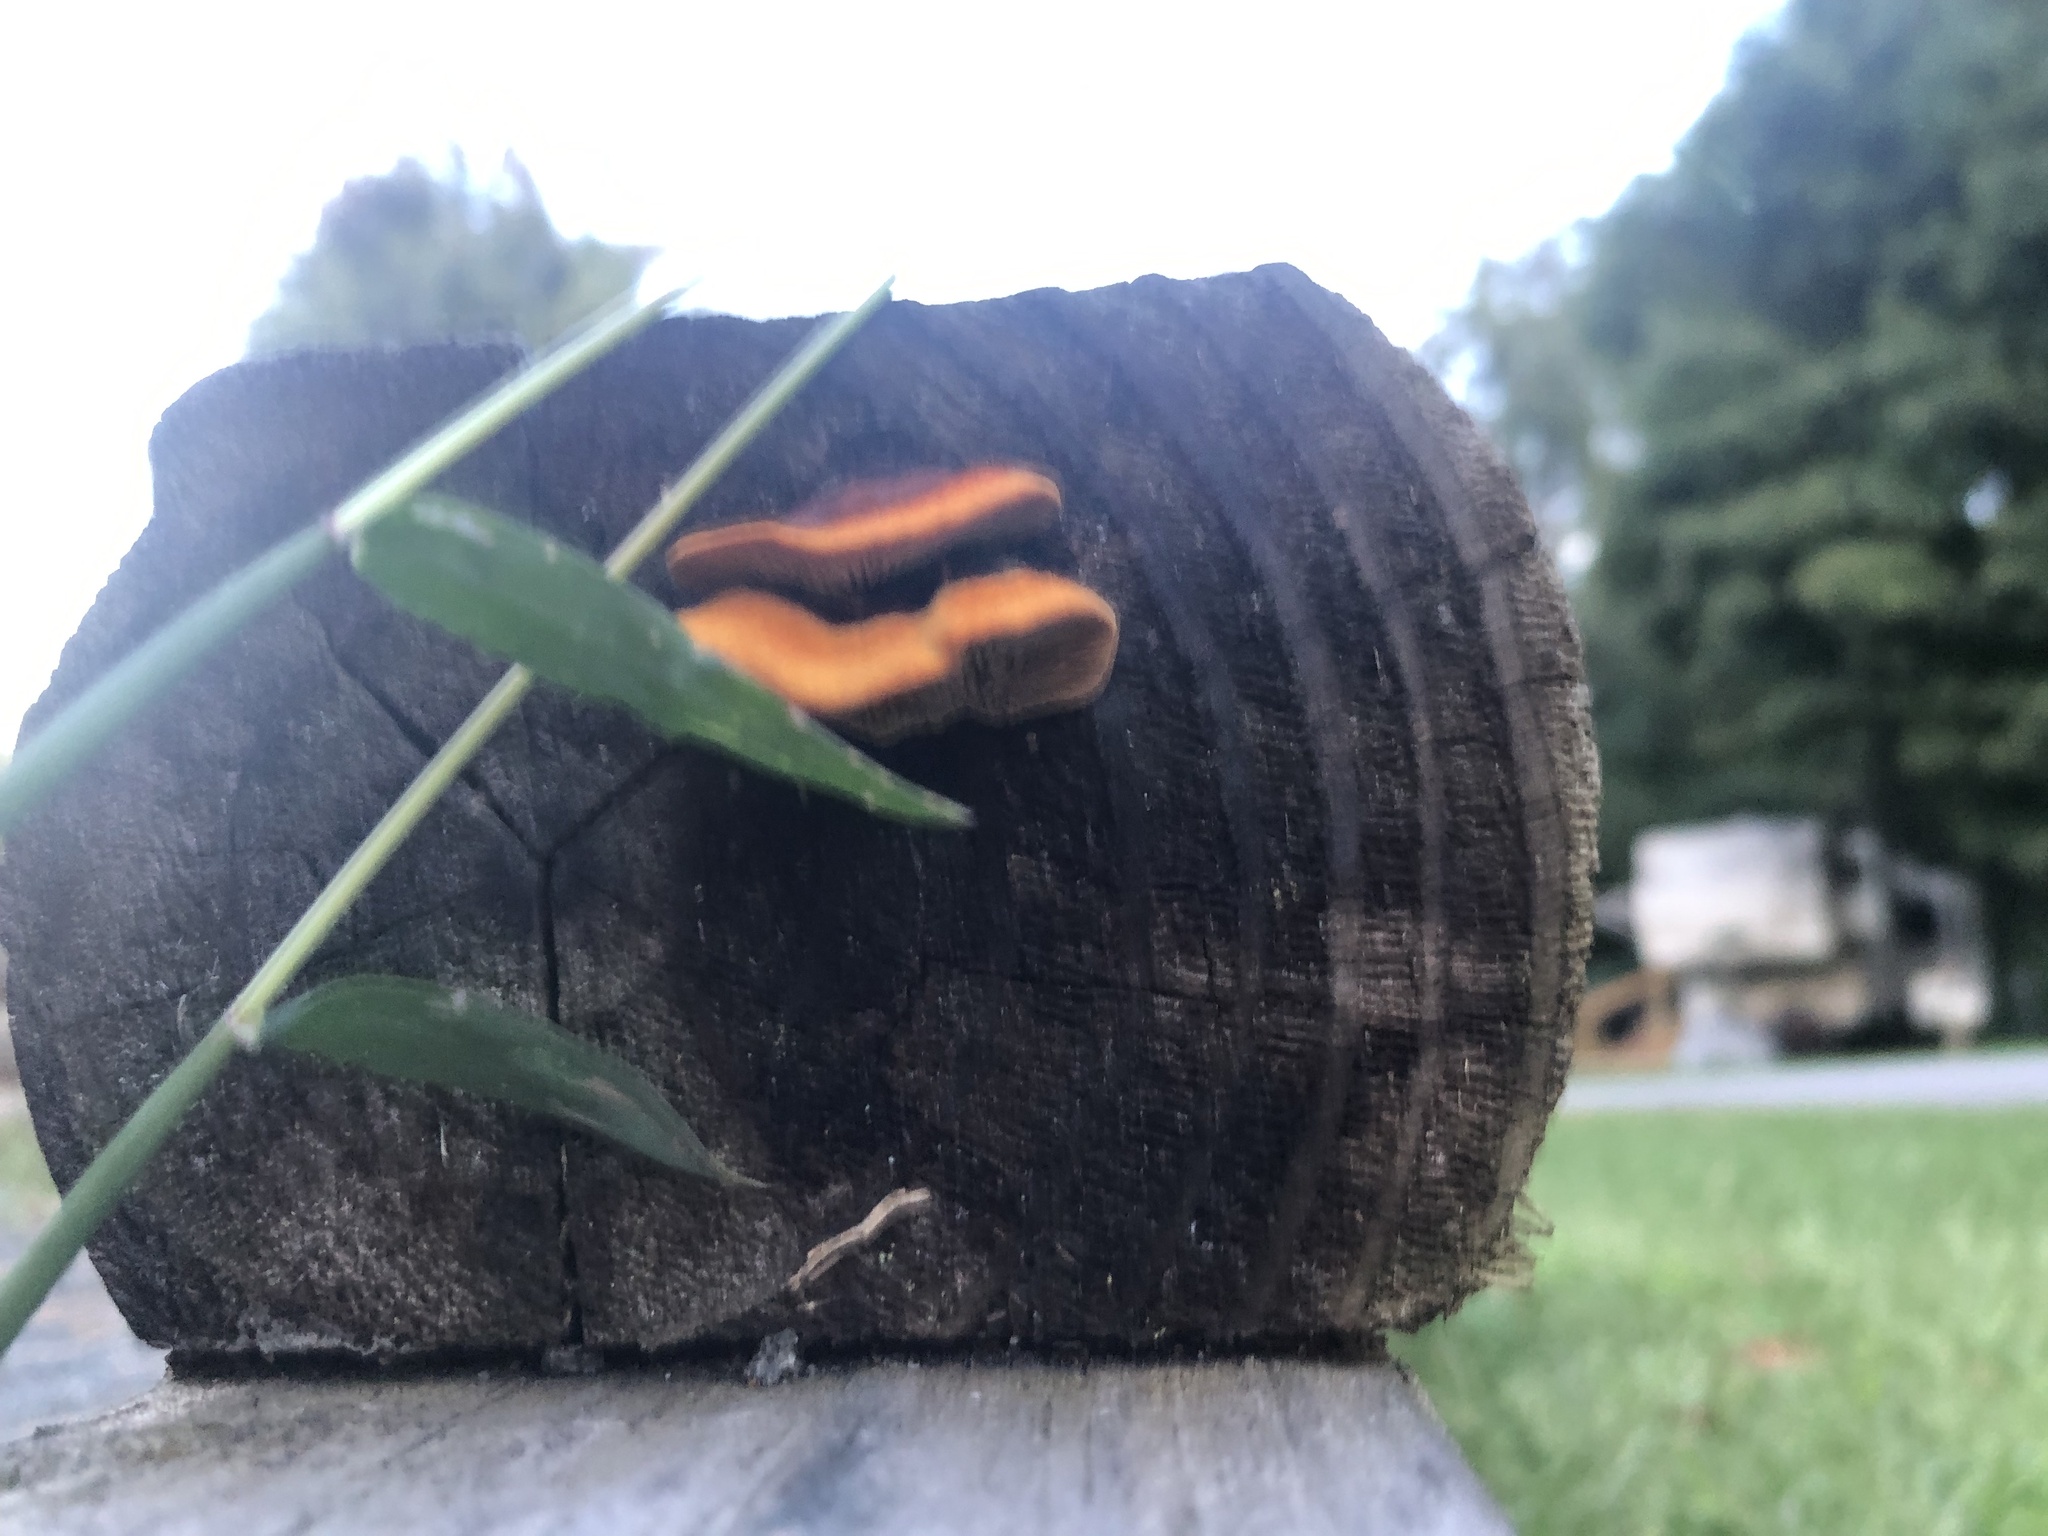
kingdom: Fungi
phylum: Basidiomycota
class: Agaricomycetes
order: Gloeophyllales
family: Gloeophyllaceae
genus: Gloeophyllum
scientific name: Gloeophyllum sepiarium
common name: Conifer mazegill
